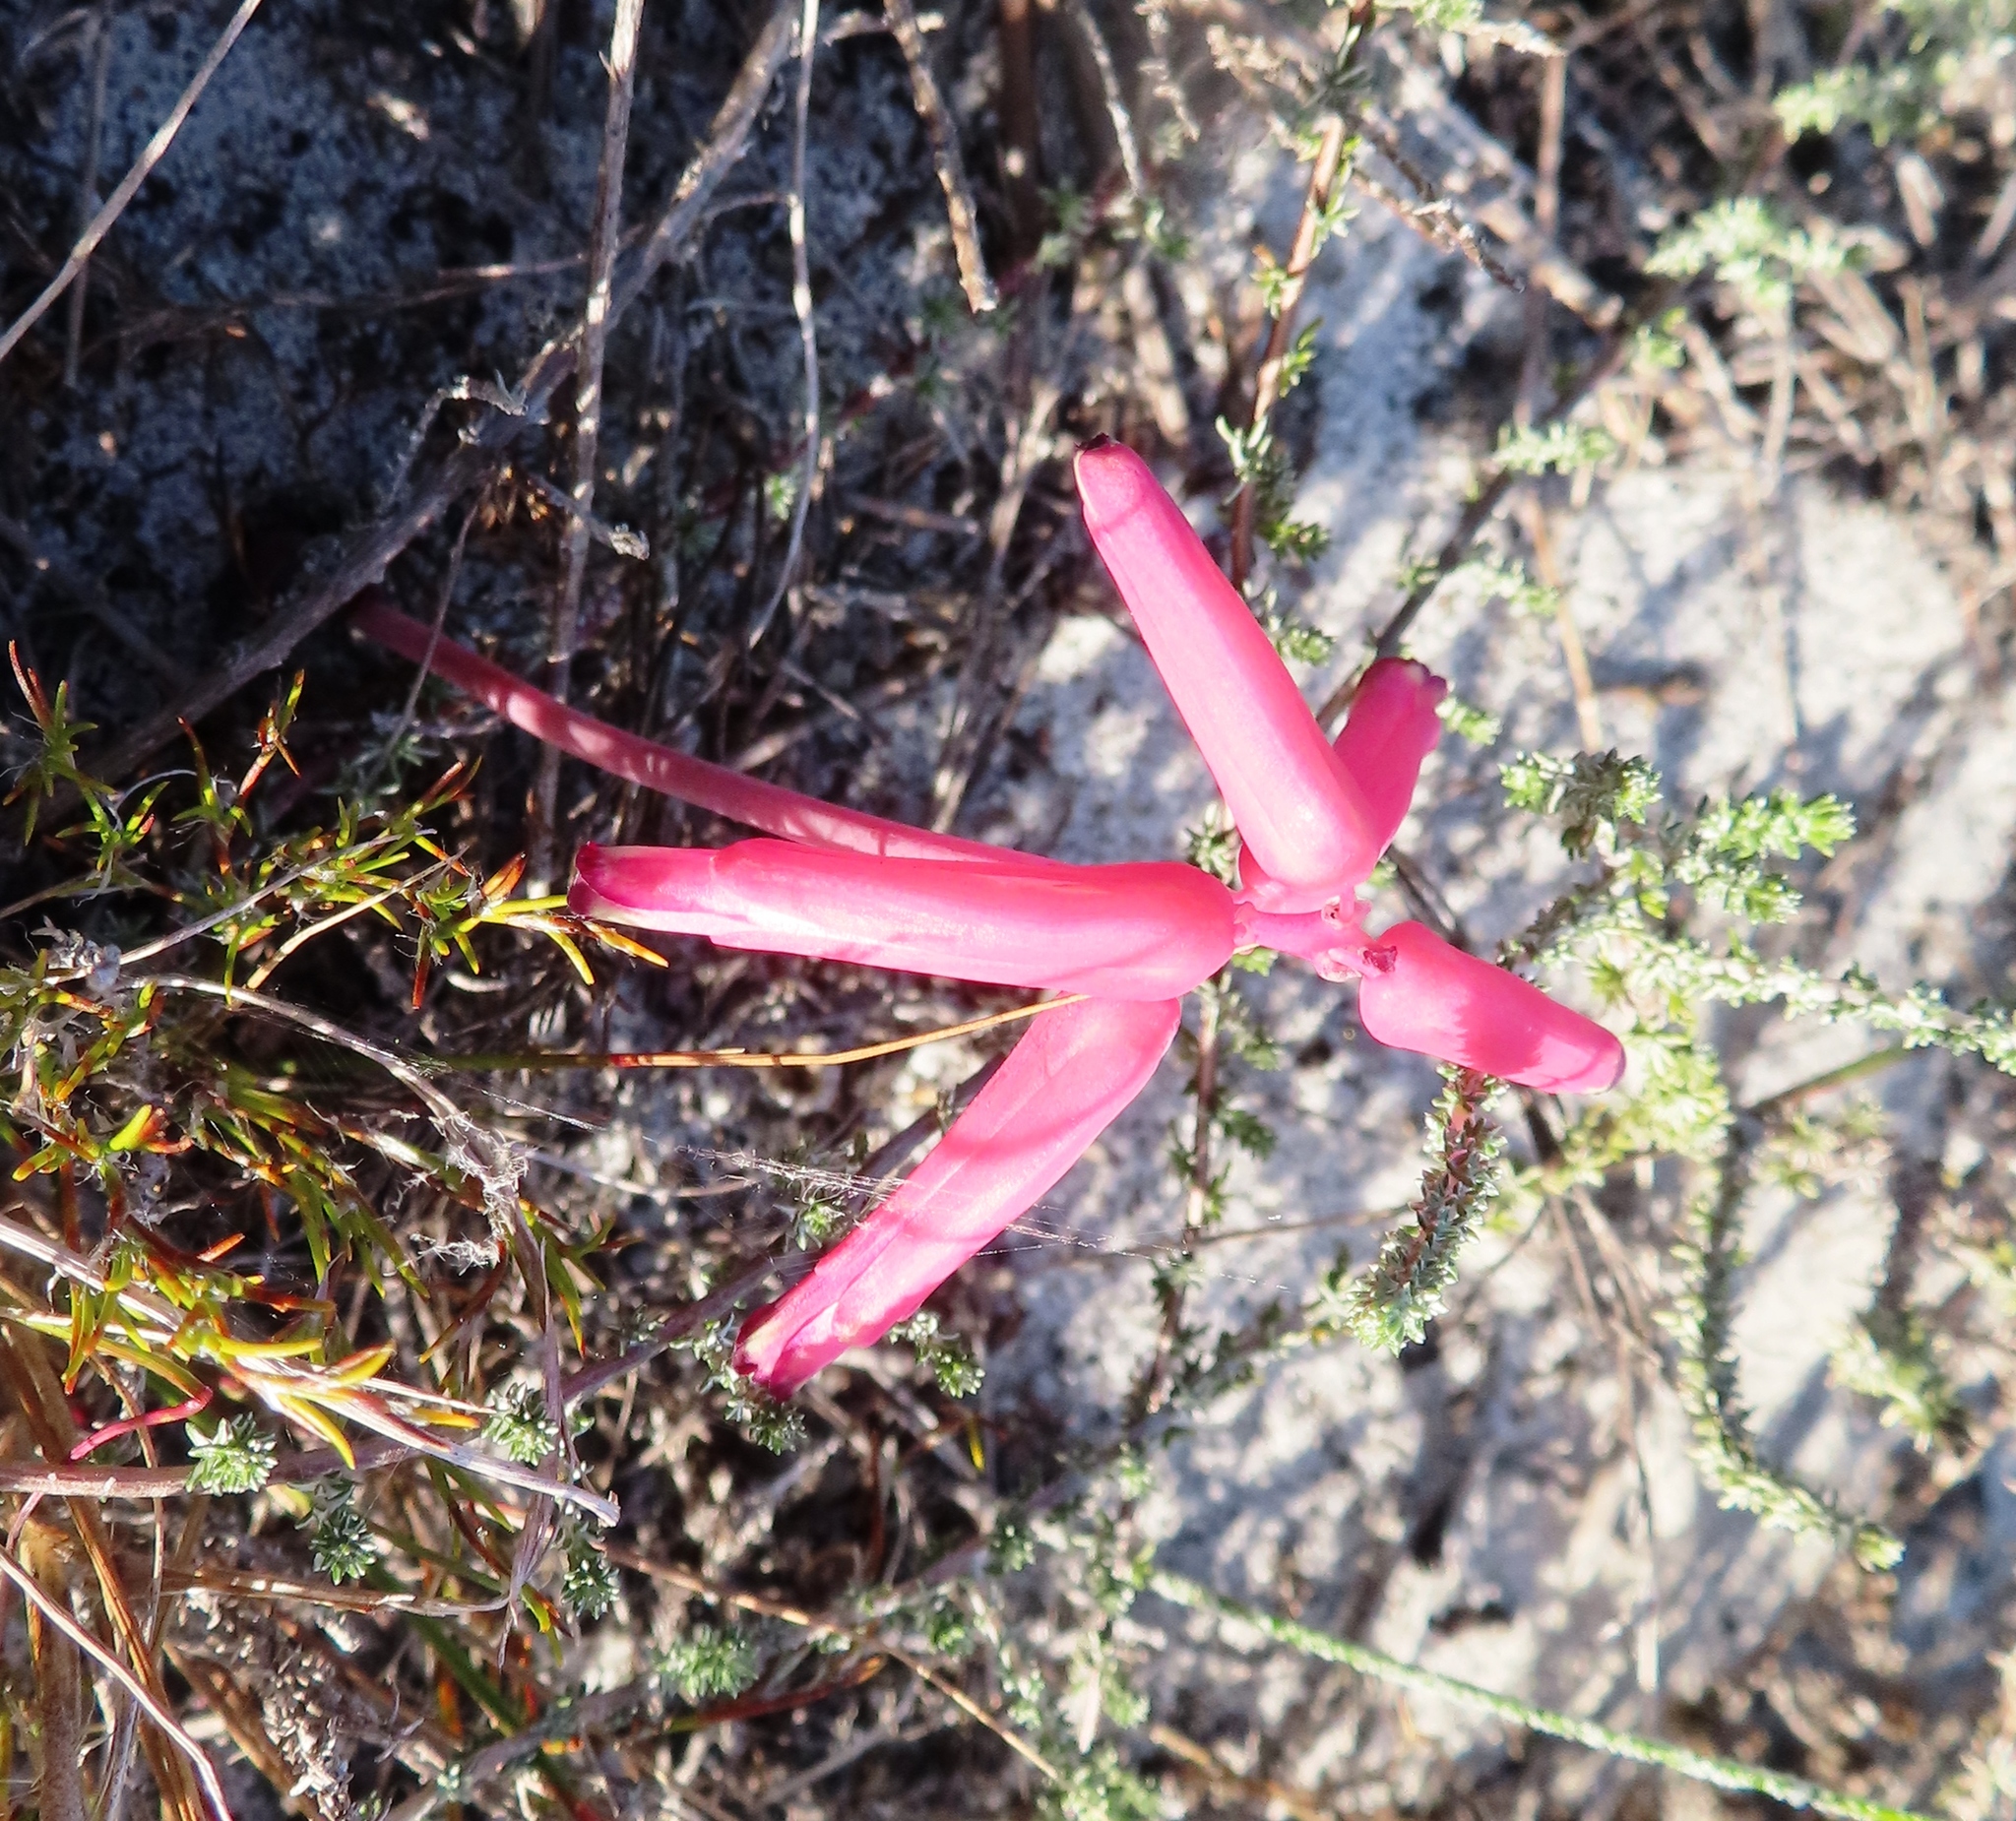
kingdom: Plantae
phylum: Tracheophyta
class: Liliopsida
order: Asparagales
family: Asparagaceae
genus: Lachenalia
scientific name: Lachenalia punctata
